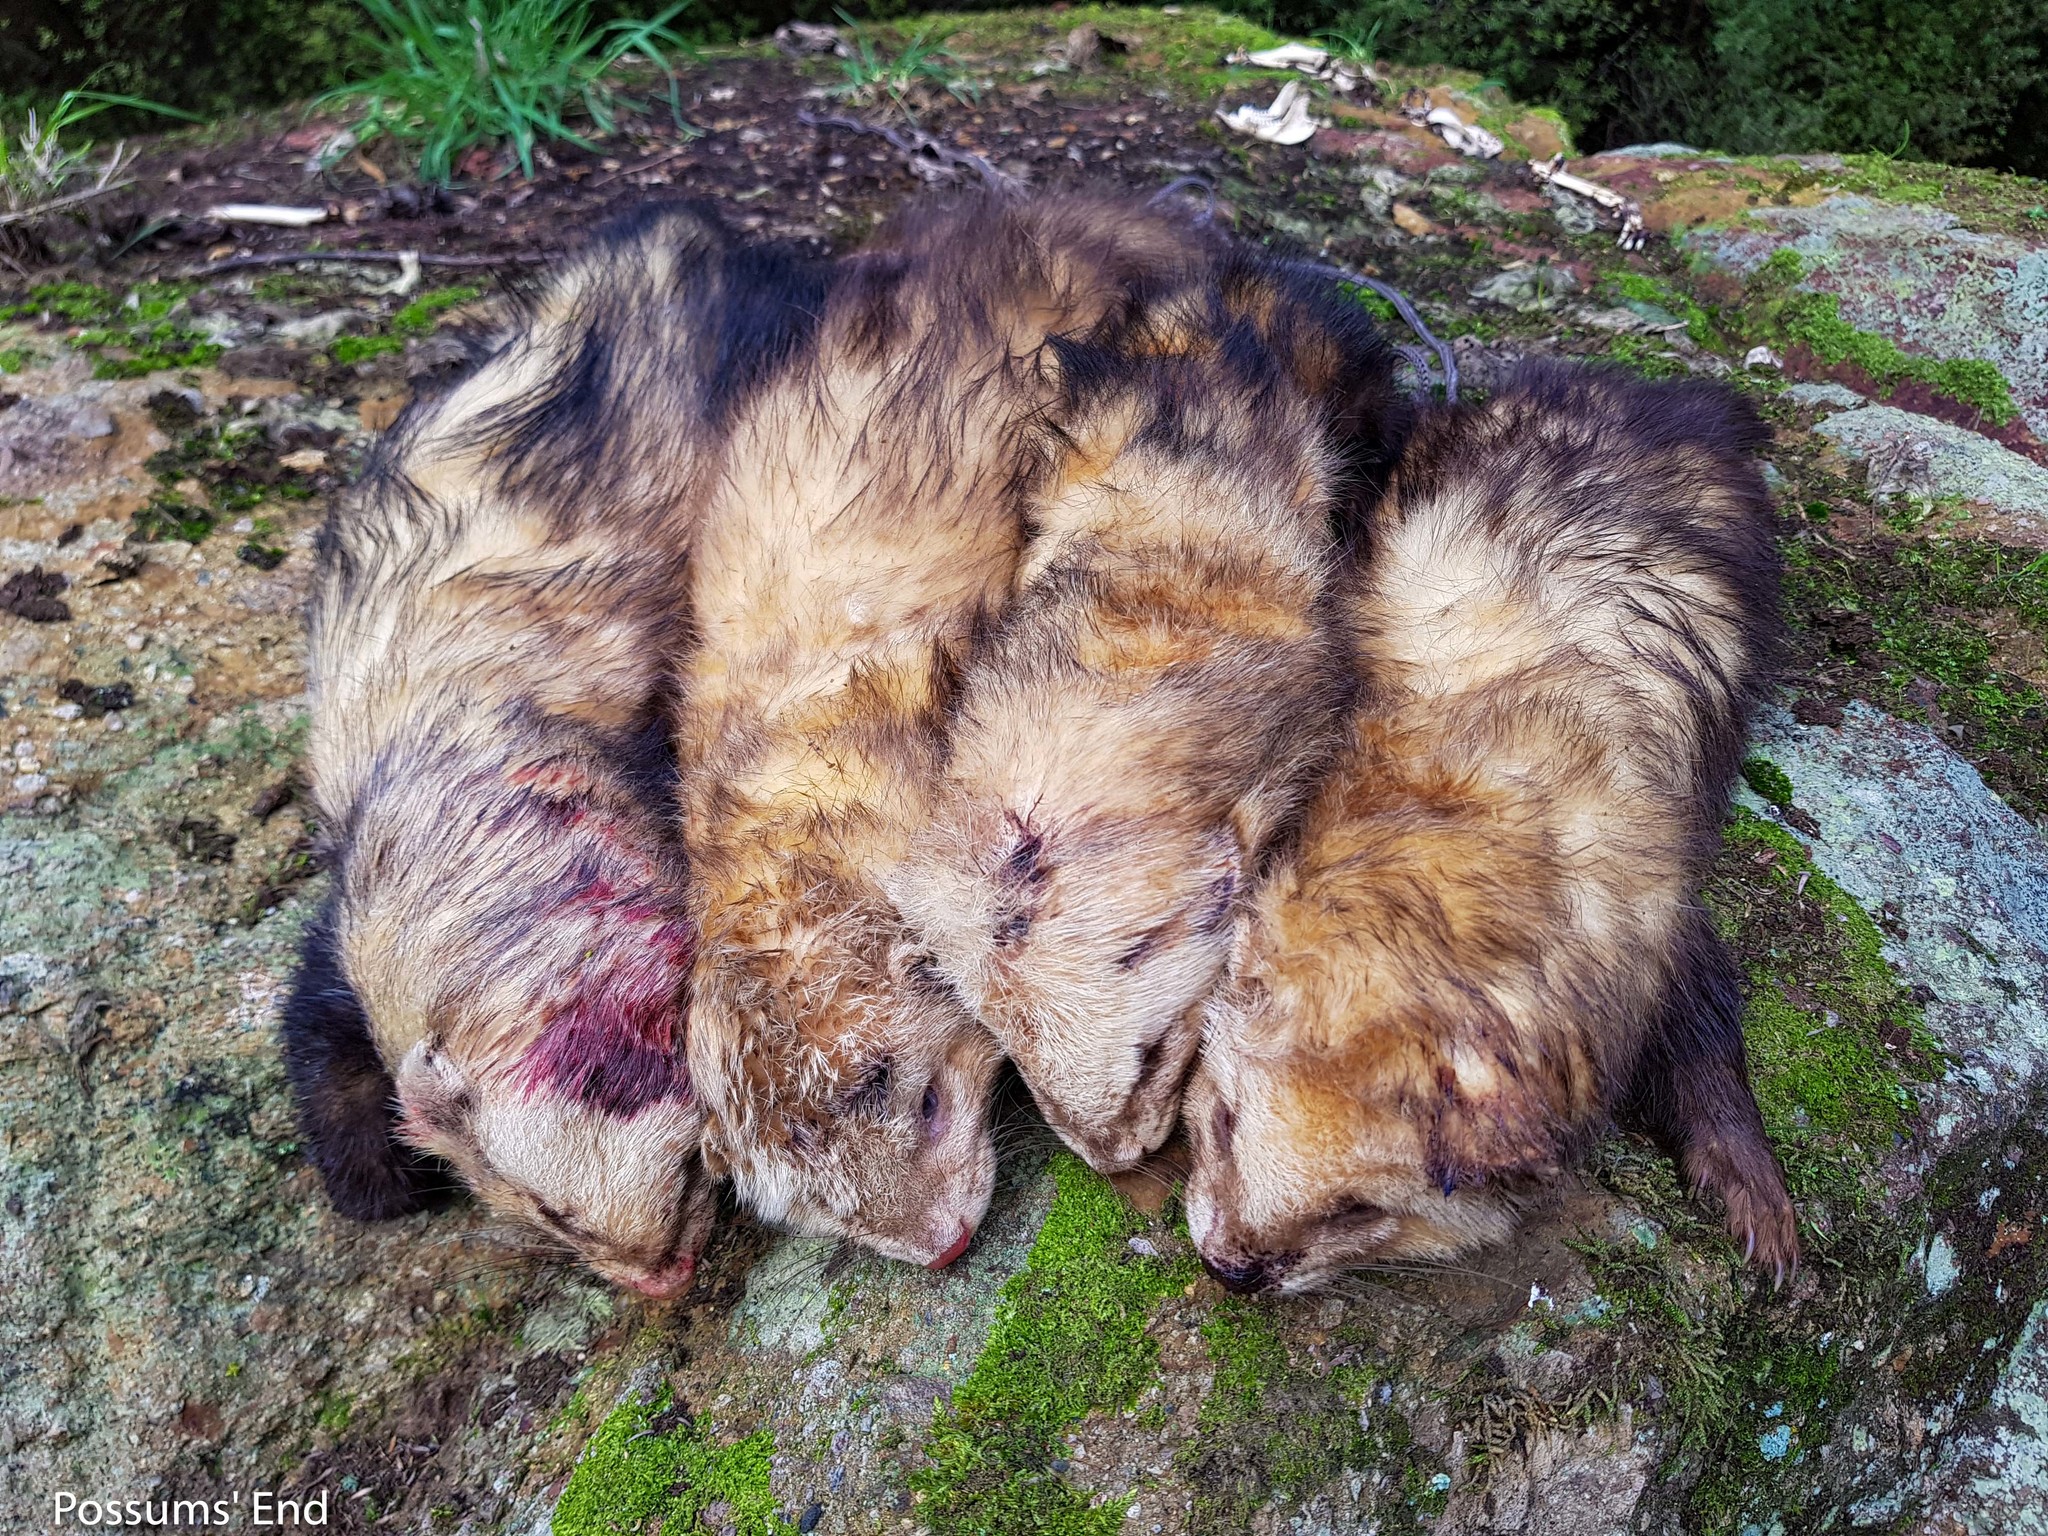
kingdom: Animalia
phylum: Chordata
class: Mammalia
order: Carnivora
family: Mustelidae
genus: Mustela
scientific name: Mustela putorius
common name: European polecat
